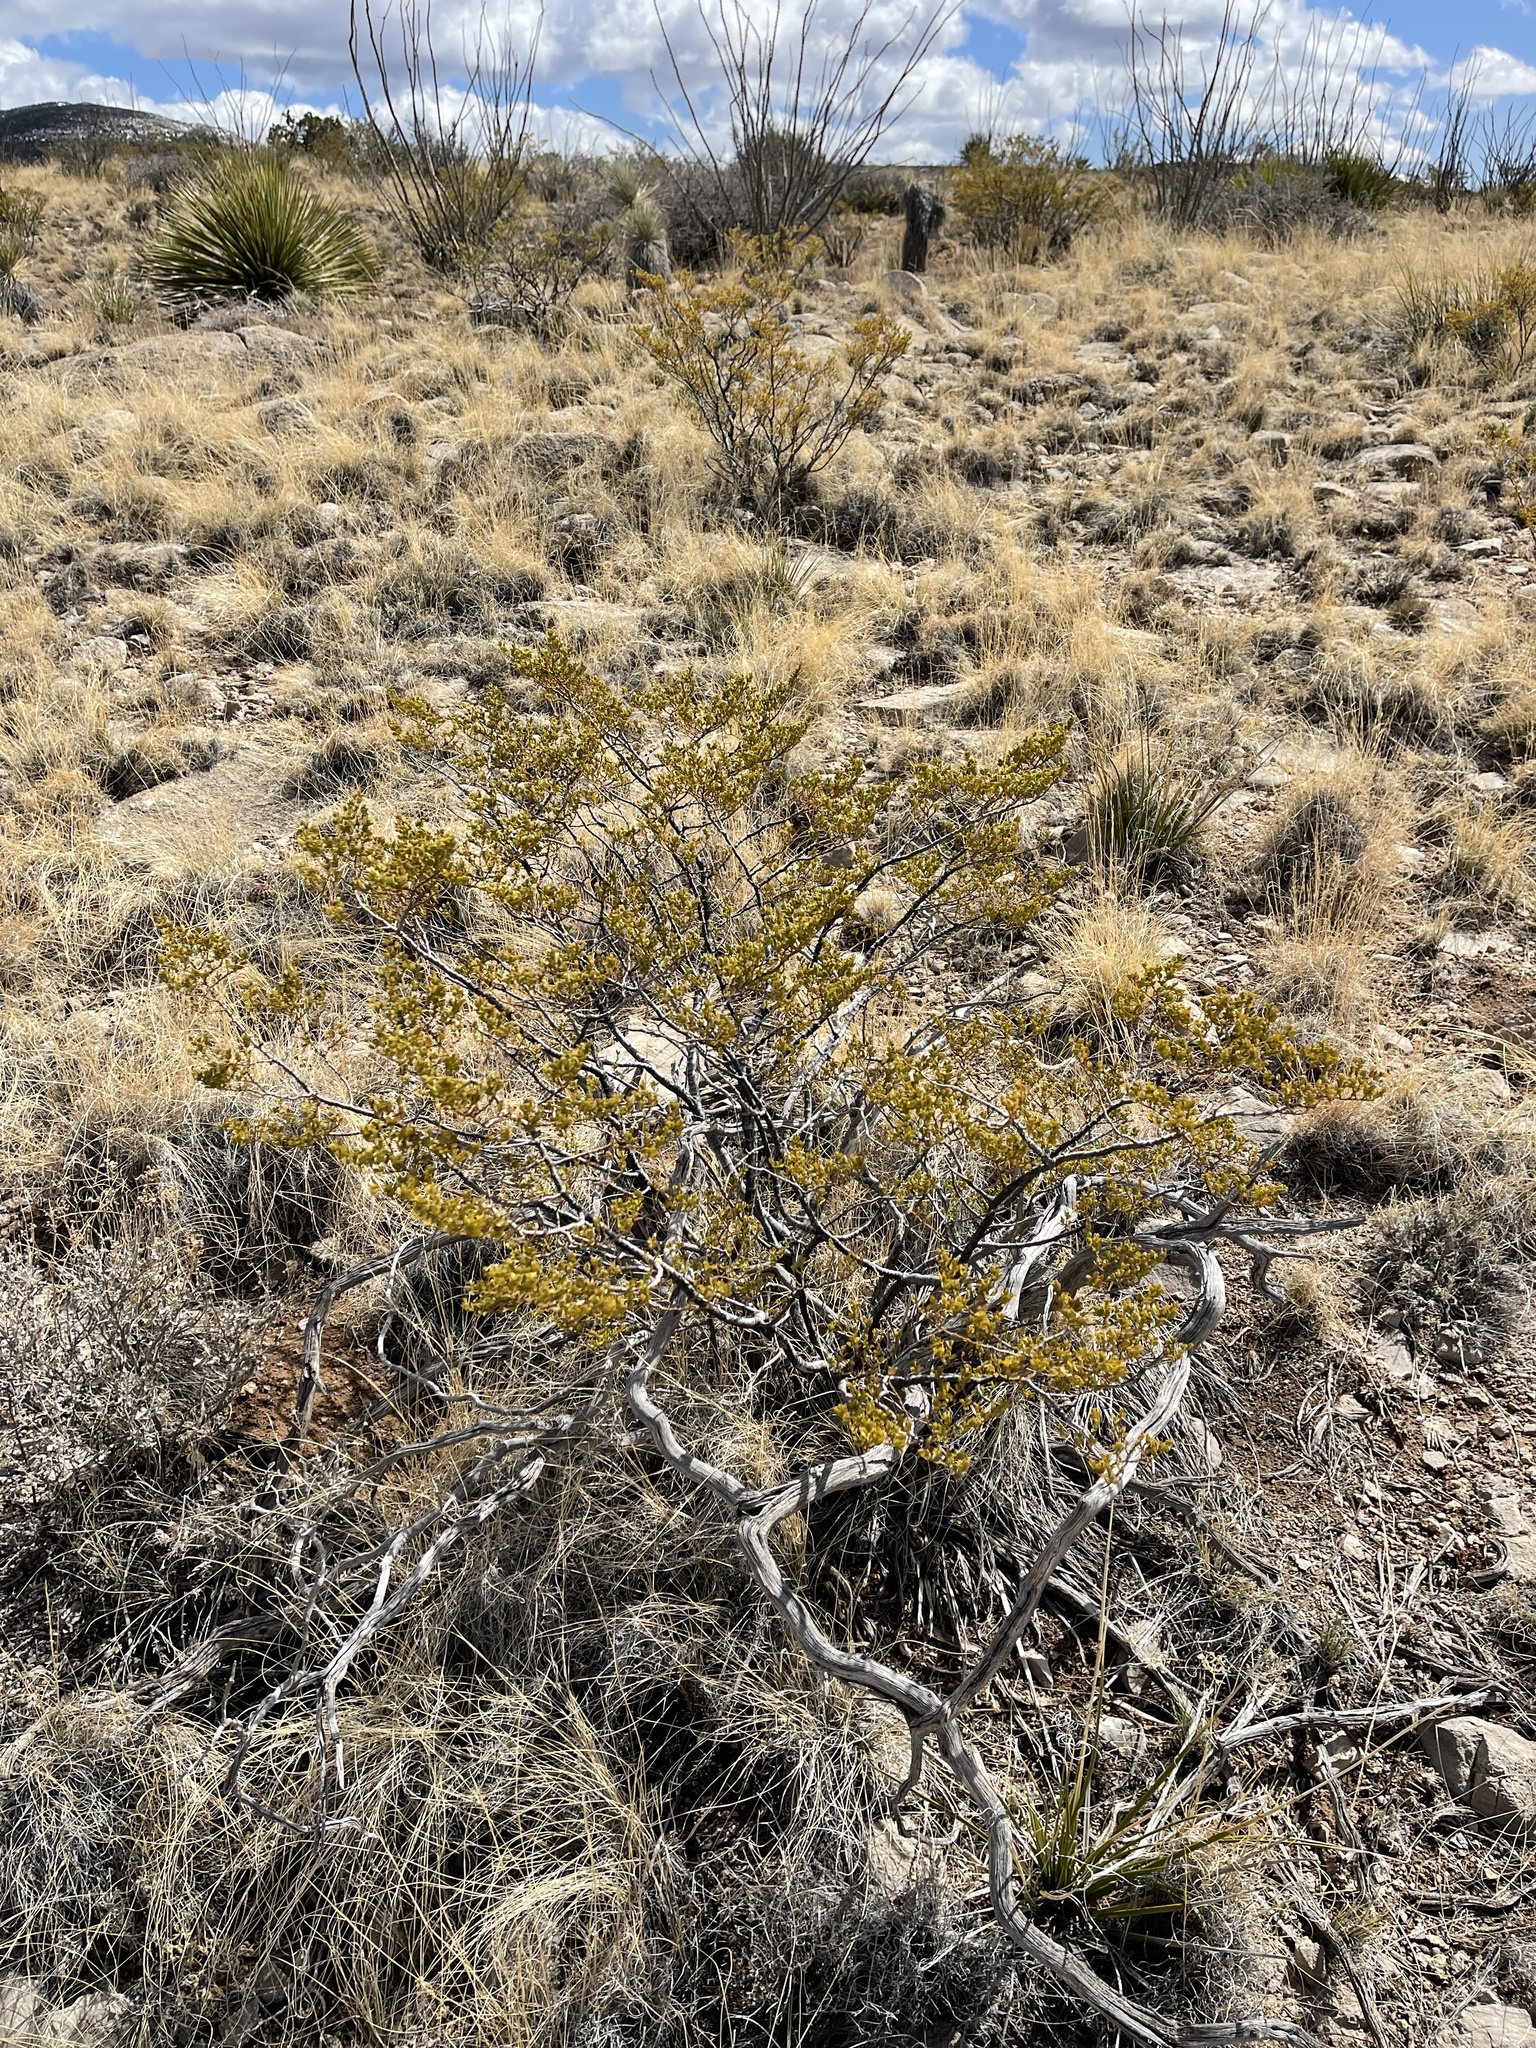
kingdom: Plantae
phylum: Tracheophyta
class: Magnoliopsida
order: Zygophyllales
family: Zygophyllaceae
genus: Larrea
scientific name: Larrea tridentata
